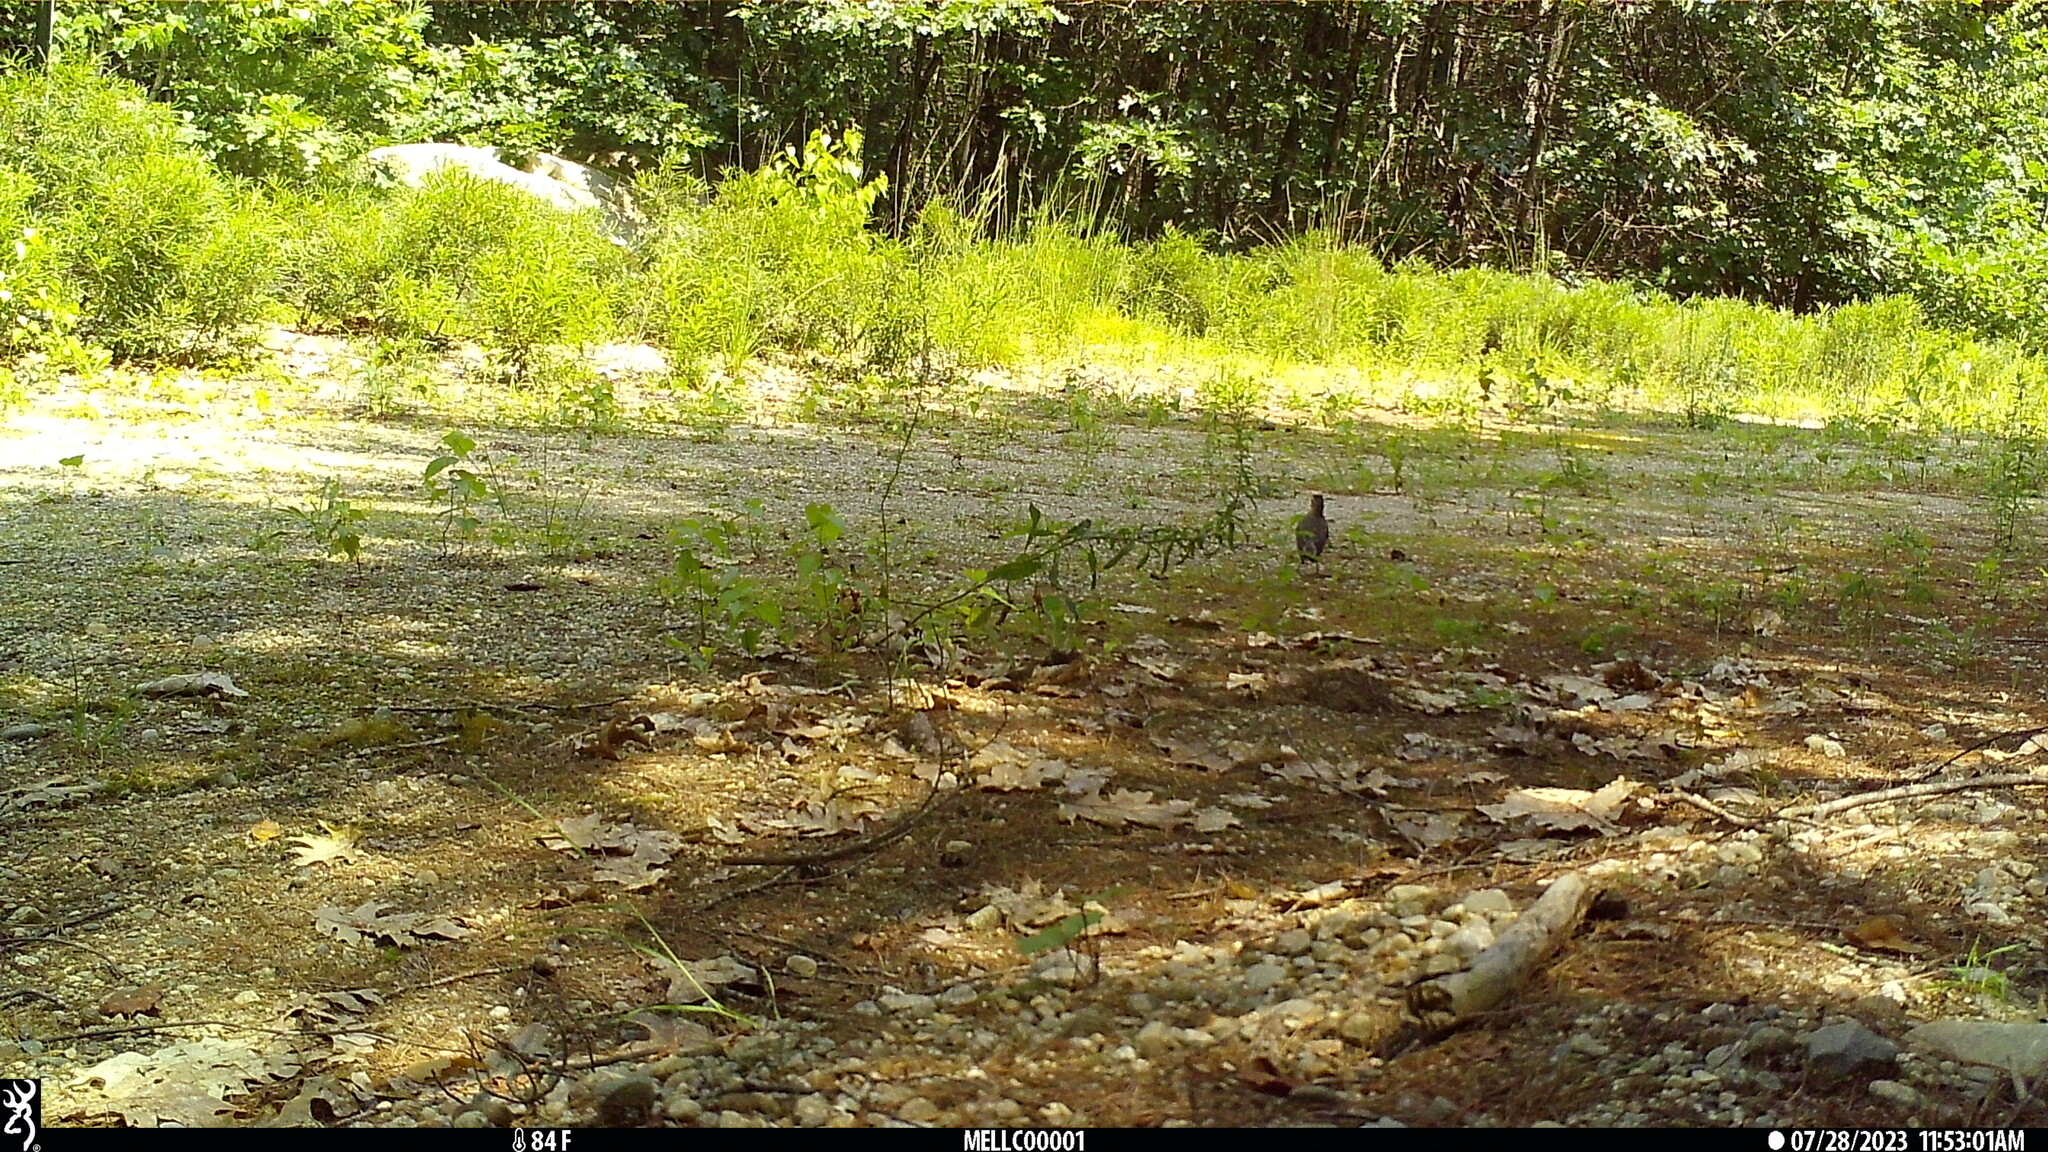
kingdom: Animalia
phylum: Chordata
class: Aves
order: Passeriformes
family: Turdidae
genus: Turdus
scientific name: Turdus migratorius
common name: American robin
